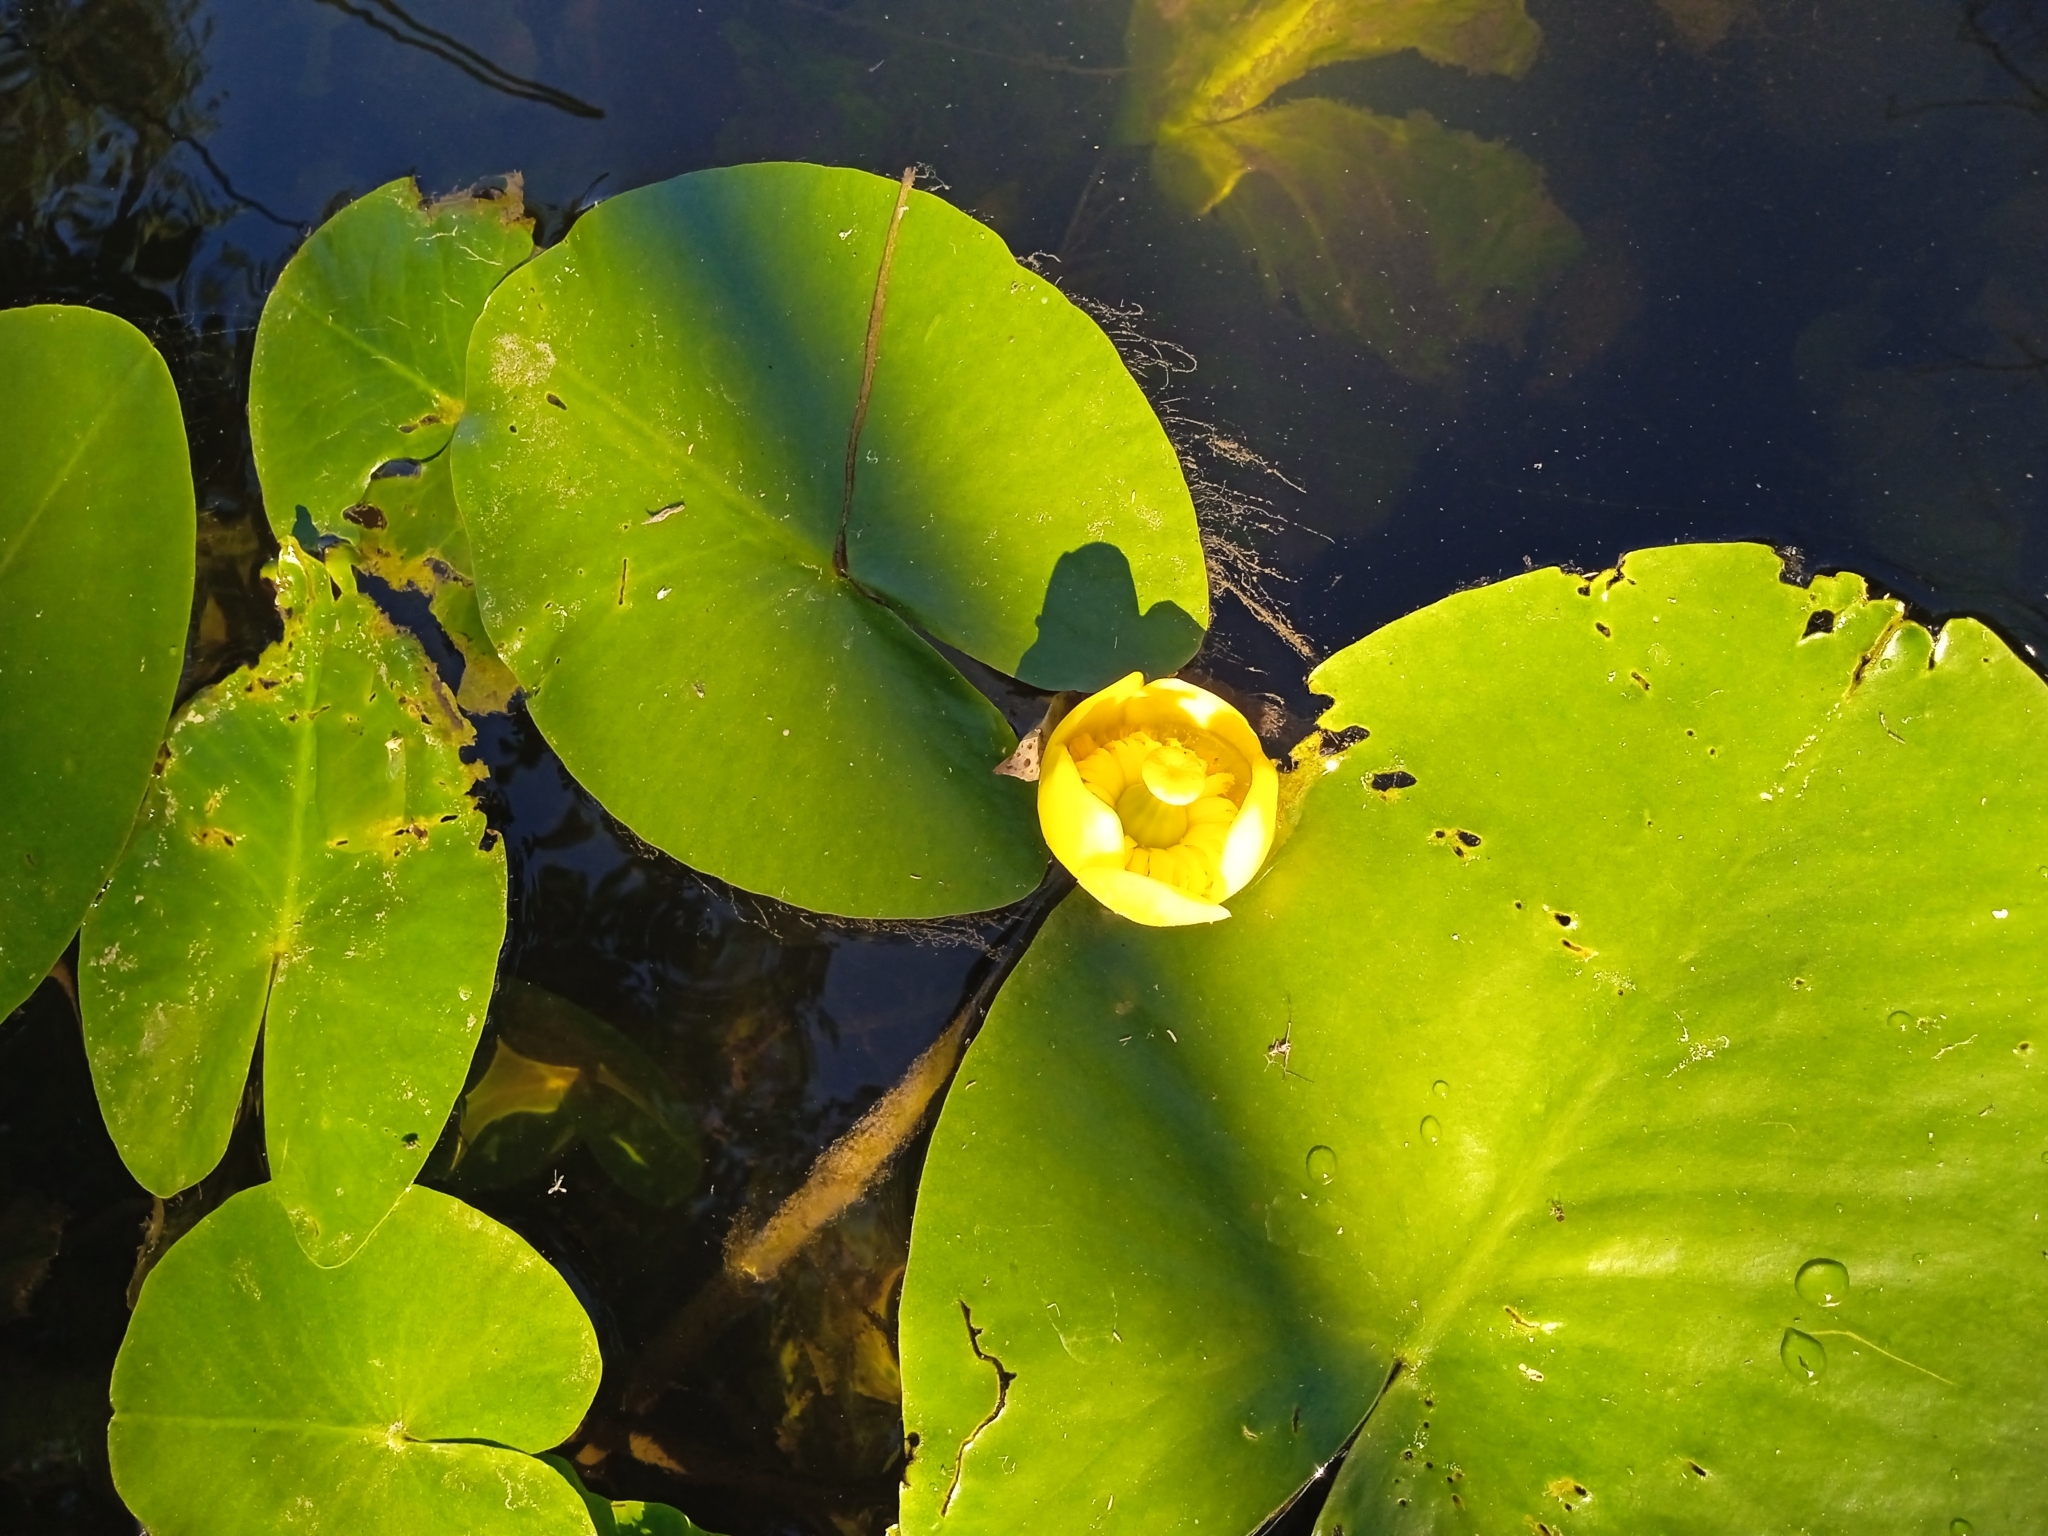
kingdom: Plantae
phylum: Tracheophyta
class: Magnoliopsida
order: Nymphaeales
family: Nymphaeaceae
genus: Nuphar
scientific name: Nuphar lutea
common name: Yellow water-lily
